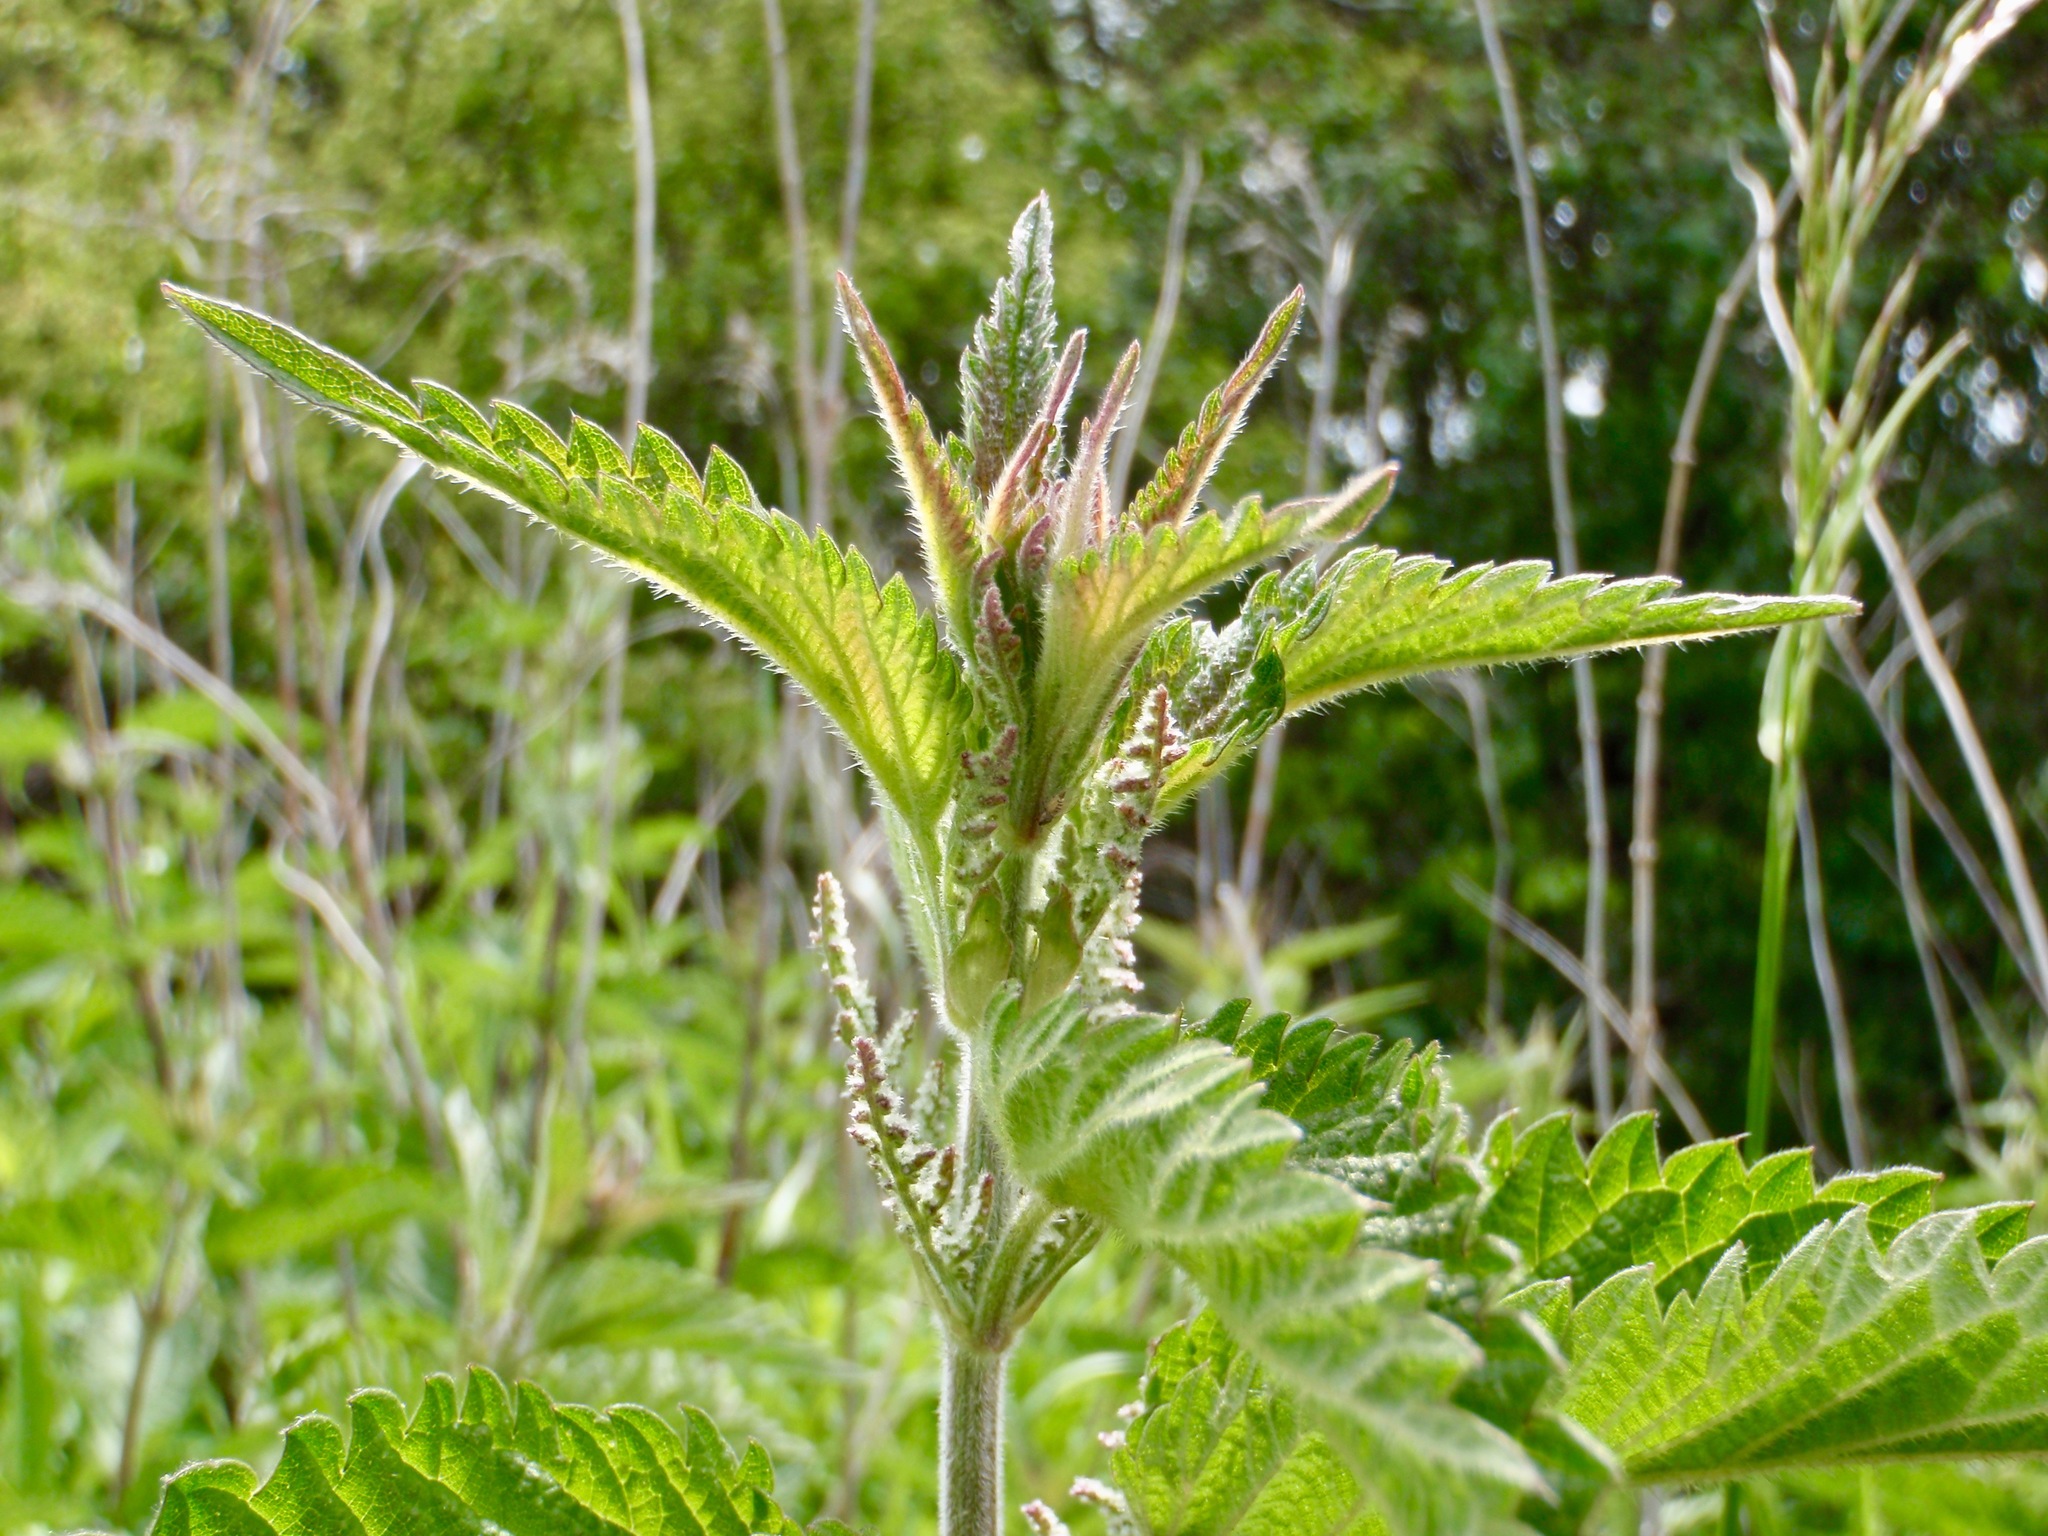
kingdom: Plantae
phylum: Tracheophyta
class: Magnoliopsida
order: Rosales
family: Urticaceae
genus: Urtica
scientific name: Urtica dioica
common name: Common nettle
